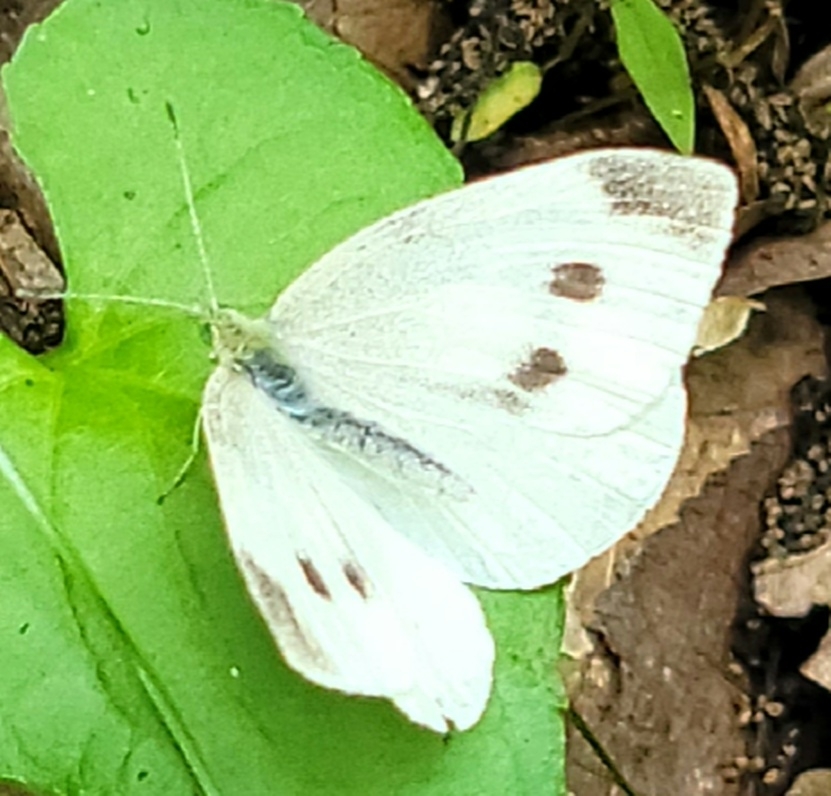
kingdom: Animalia
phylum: Arthropoda
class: Insecta
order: Lepidoptera
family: Pieridae
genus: Pieris
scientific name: Pieris rapae
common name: Small white
